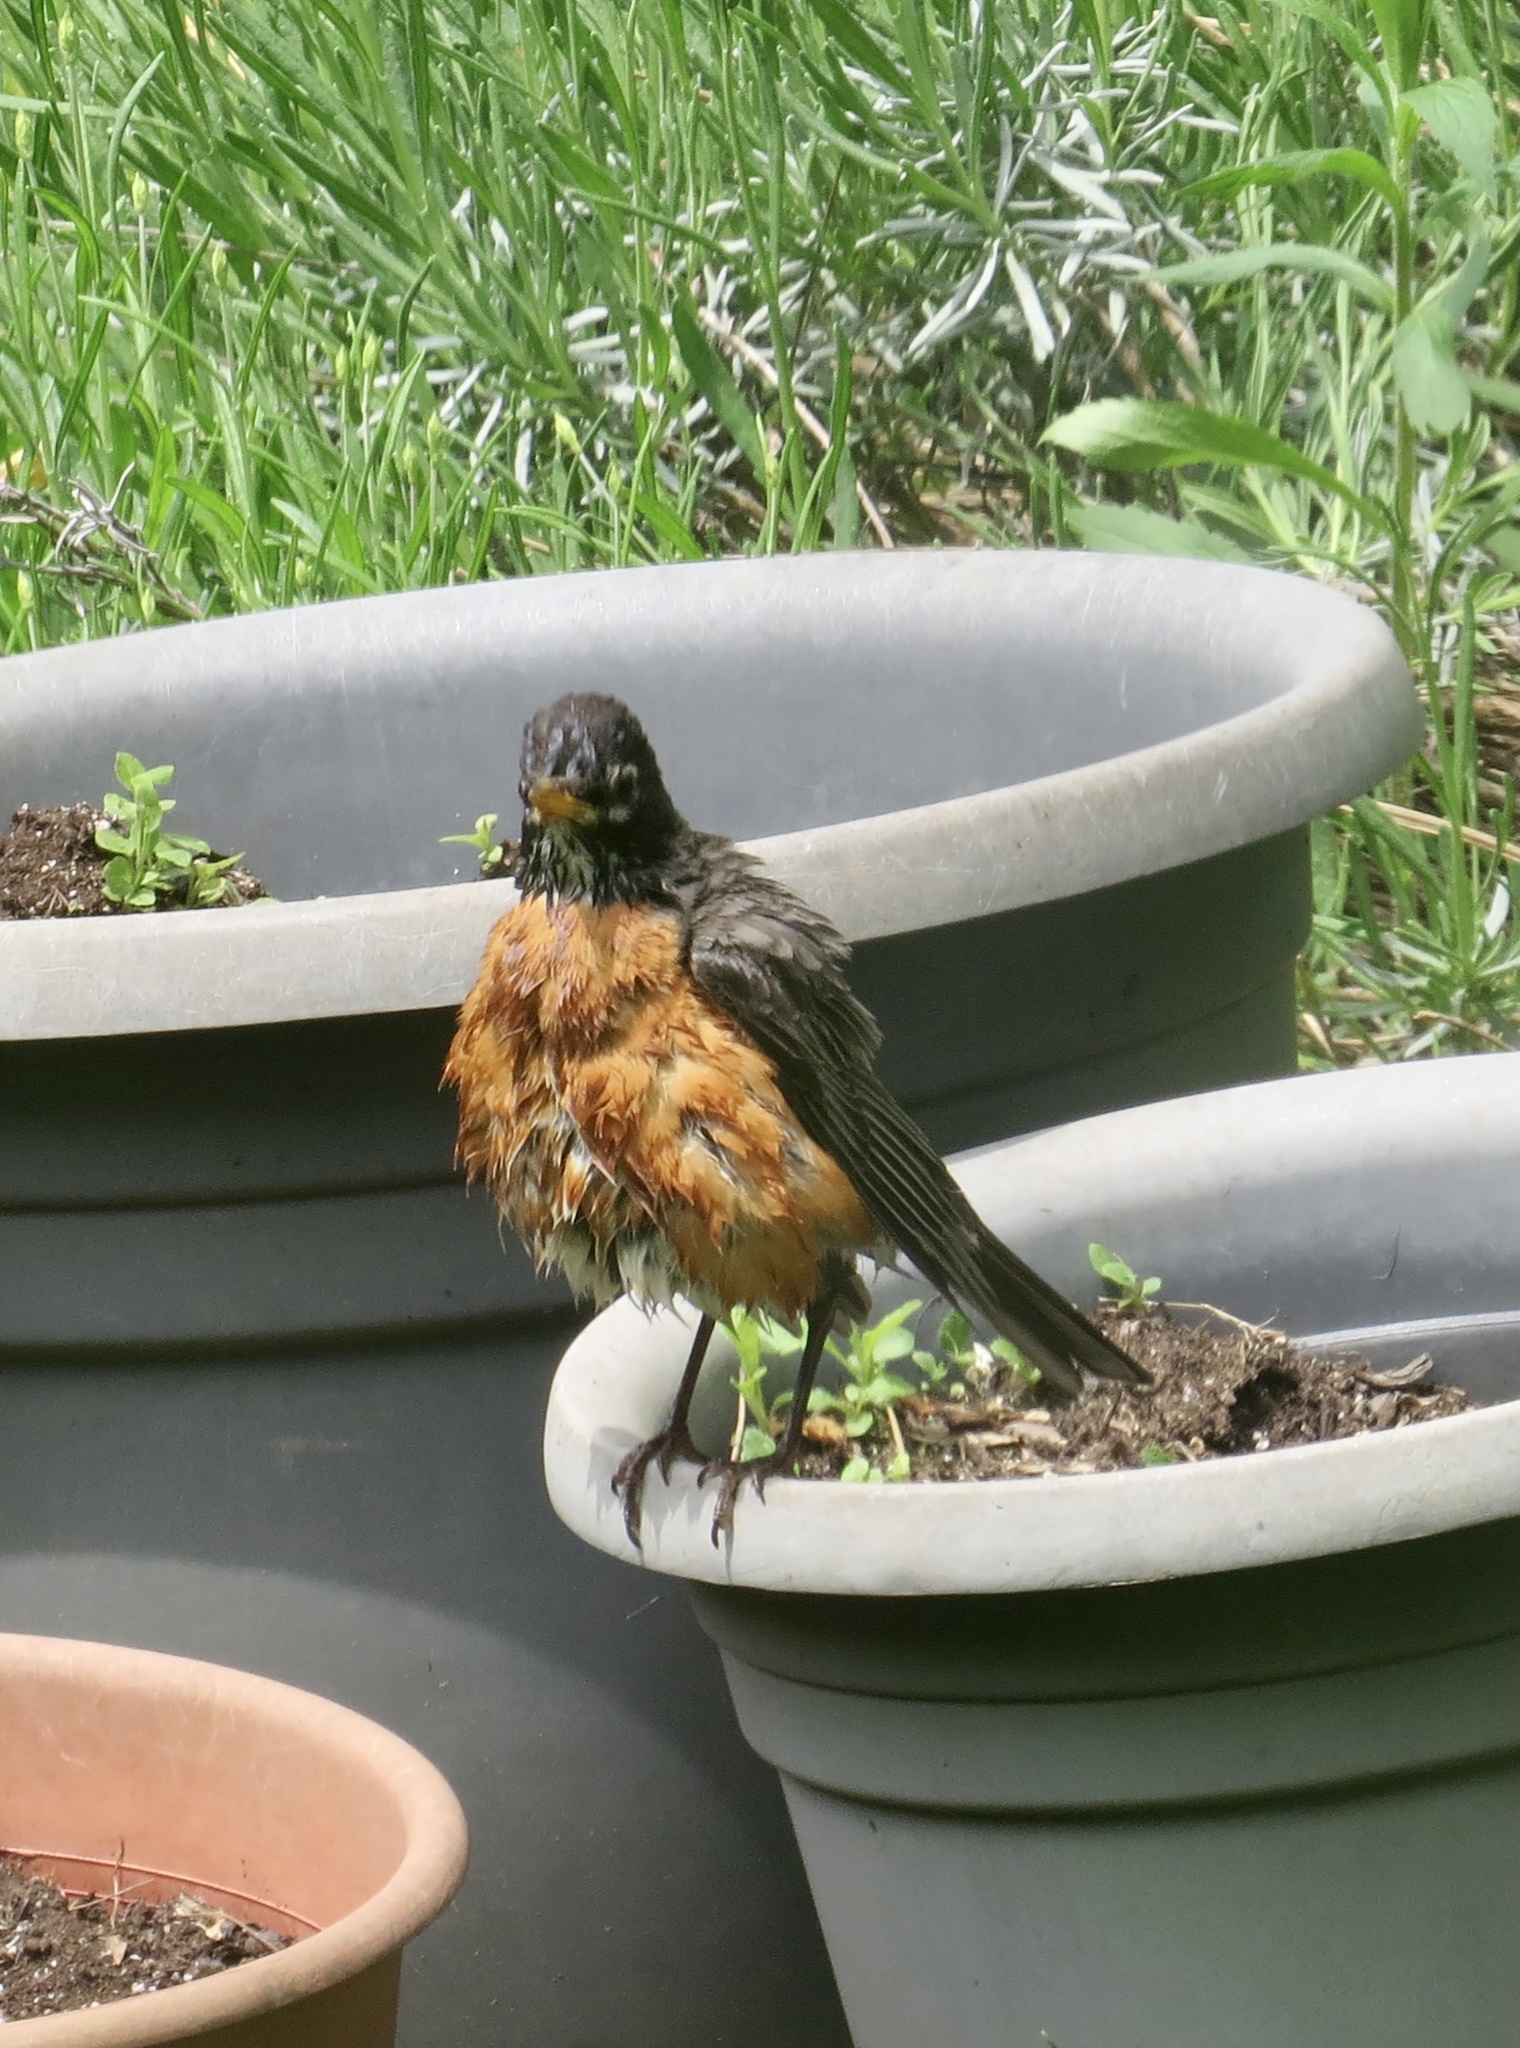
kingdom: Animalia
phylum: Chordata
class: Aves
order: Passeriformes
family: Turdidae
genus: Turdus
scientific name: Turdus migratorius
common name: American robin
